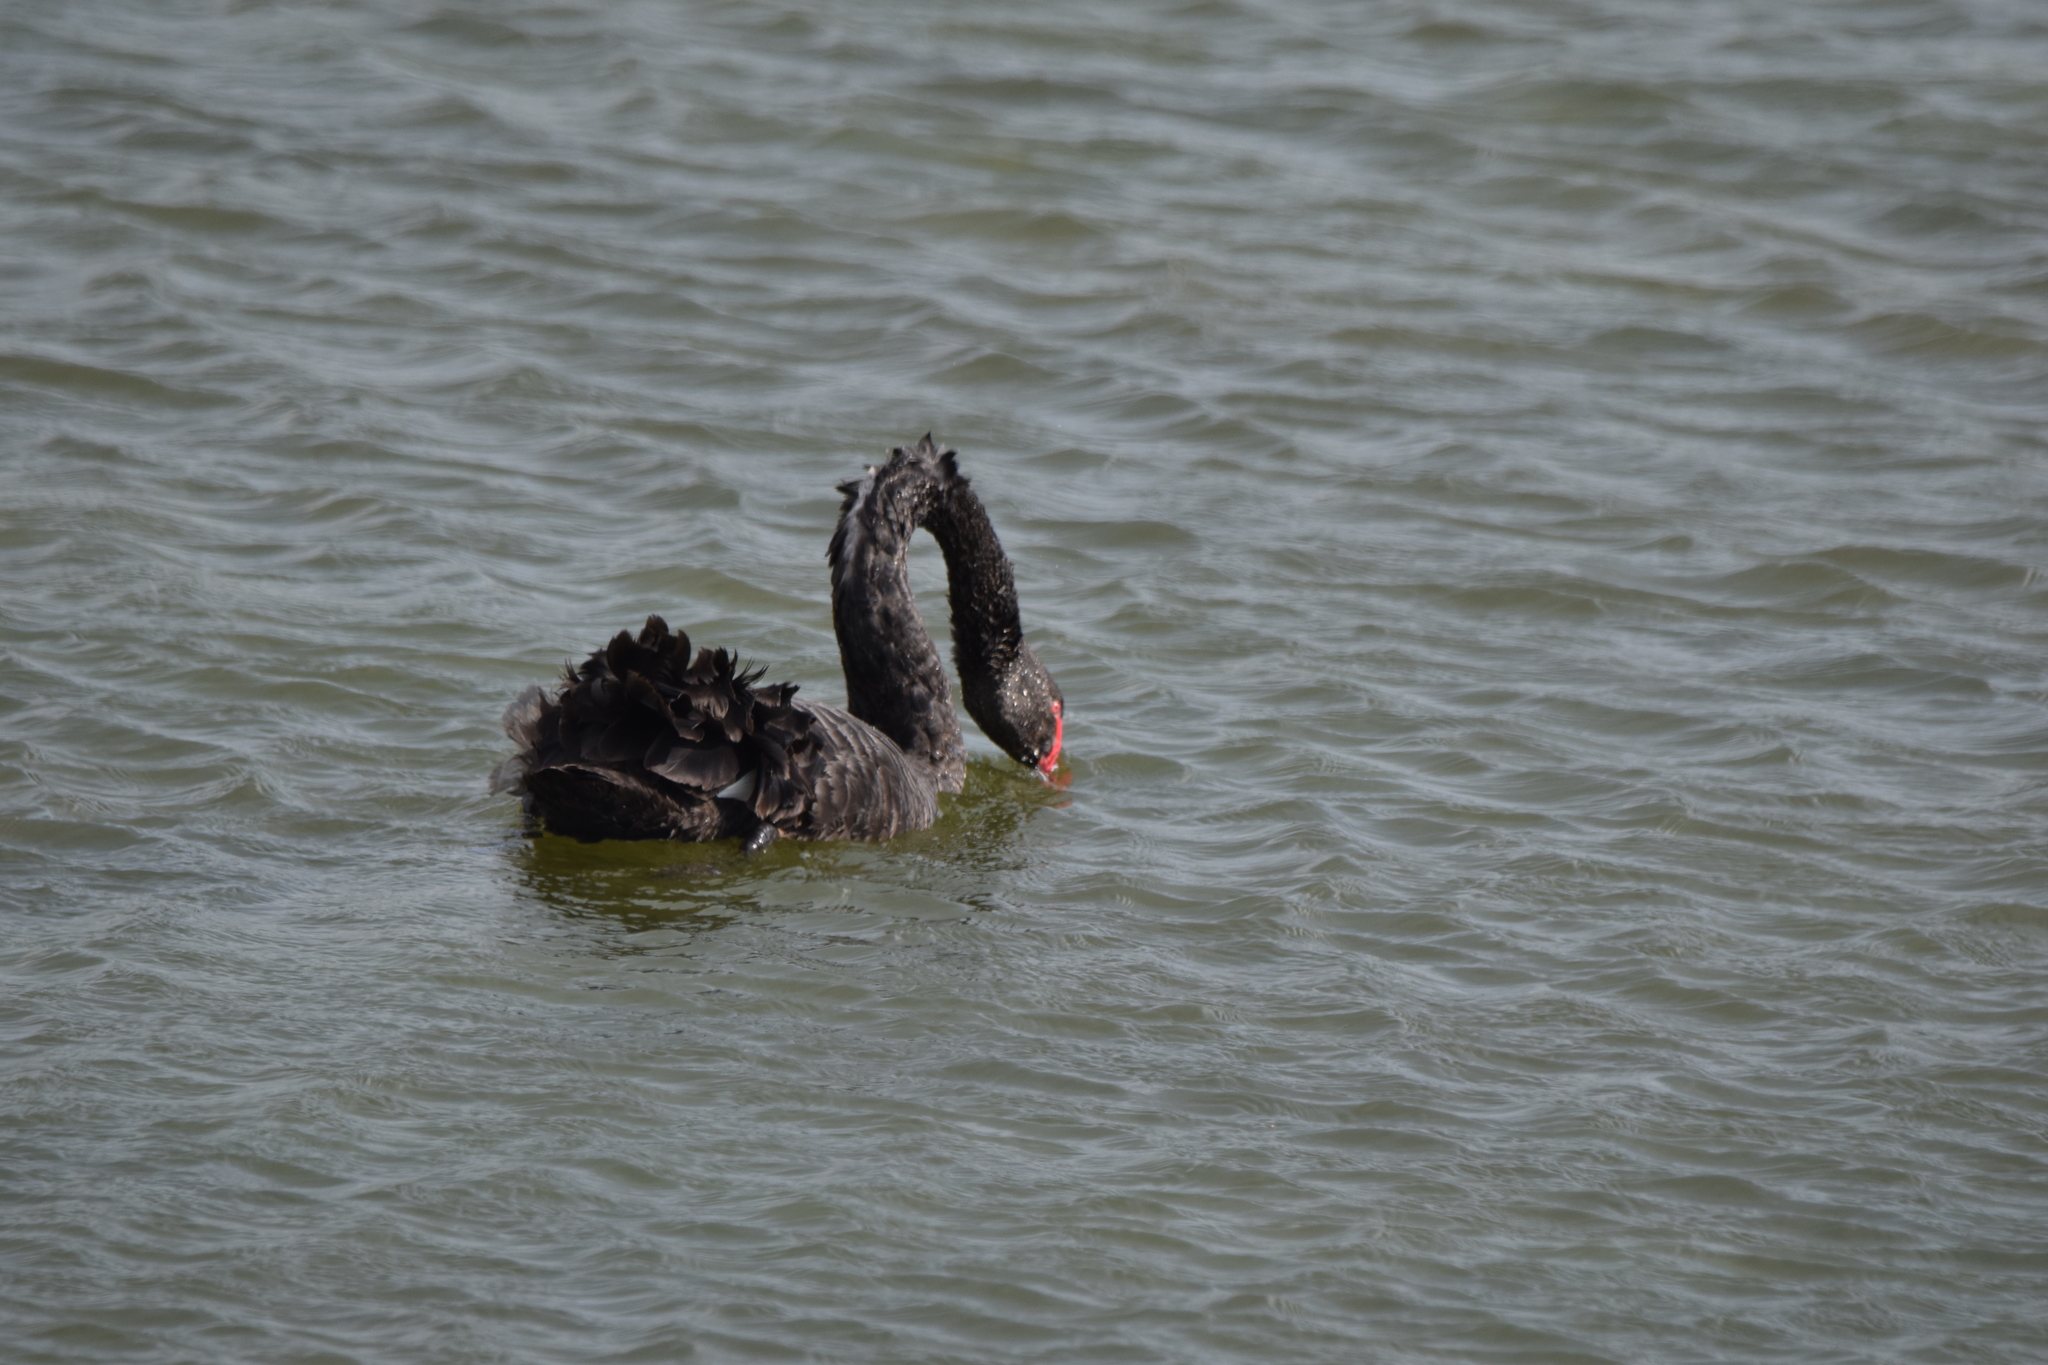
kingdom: Animalia
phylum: Chordata
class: Aves
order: Anseriformes
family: Anatidae
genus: Cygnus
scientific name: Cygnus atratus
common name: Black swan
